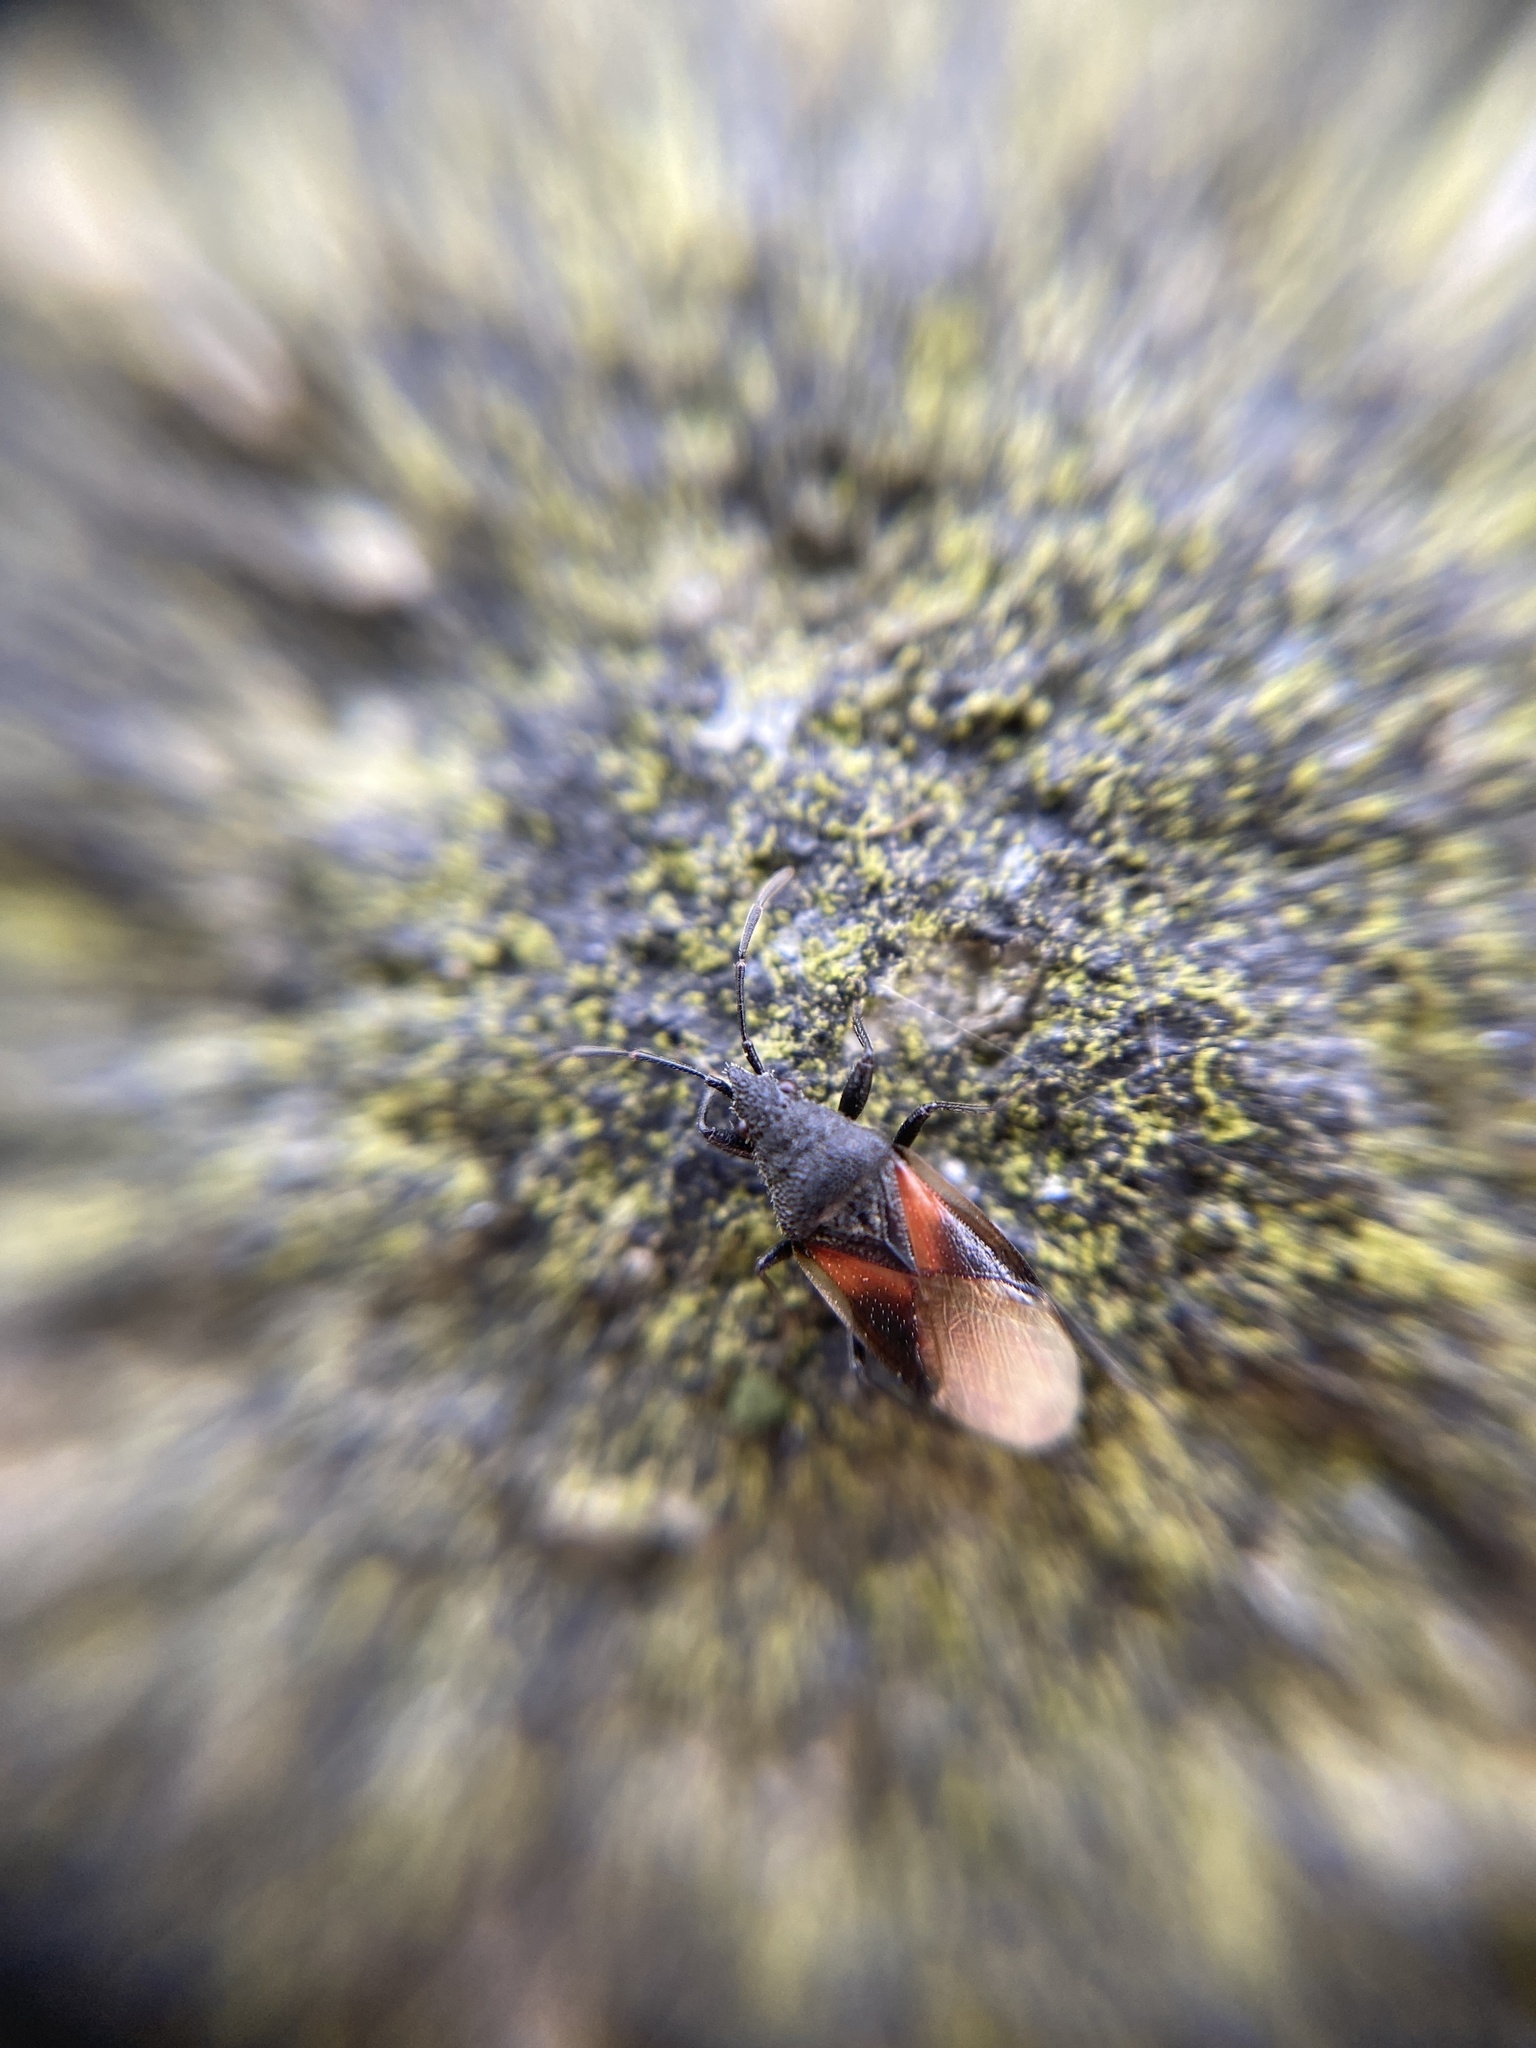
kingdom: Animalia
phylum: Arthropoda
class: Insecta
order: Hemiptera
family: Oxycarenidae
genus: Oxycarenus
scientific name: Oxycarenus lavaterae
